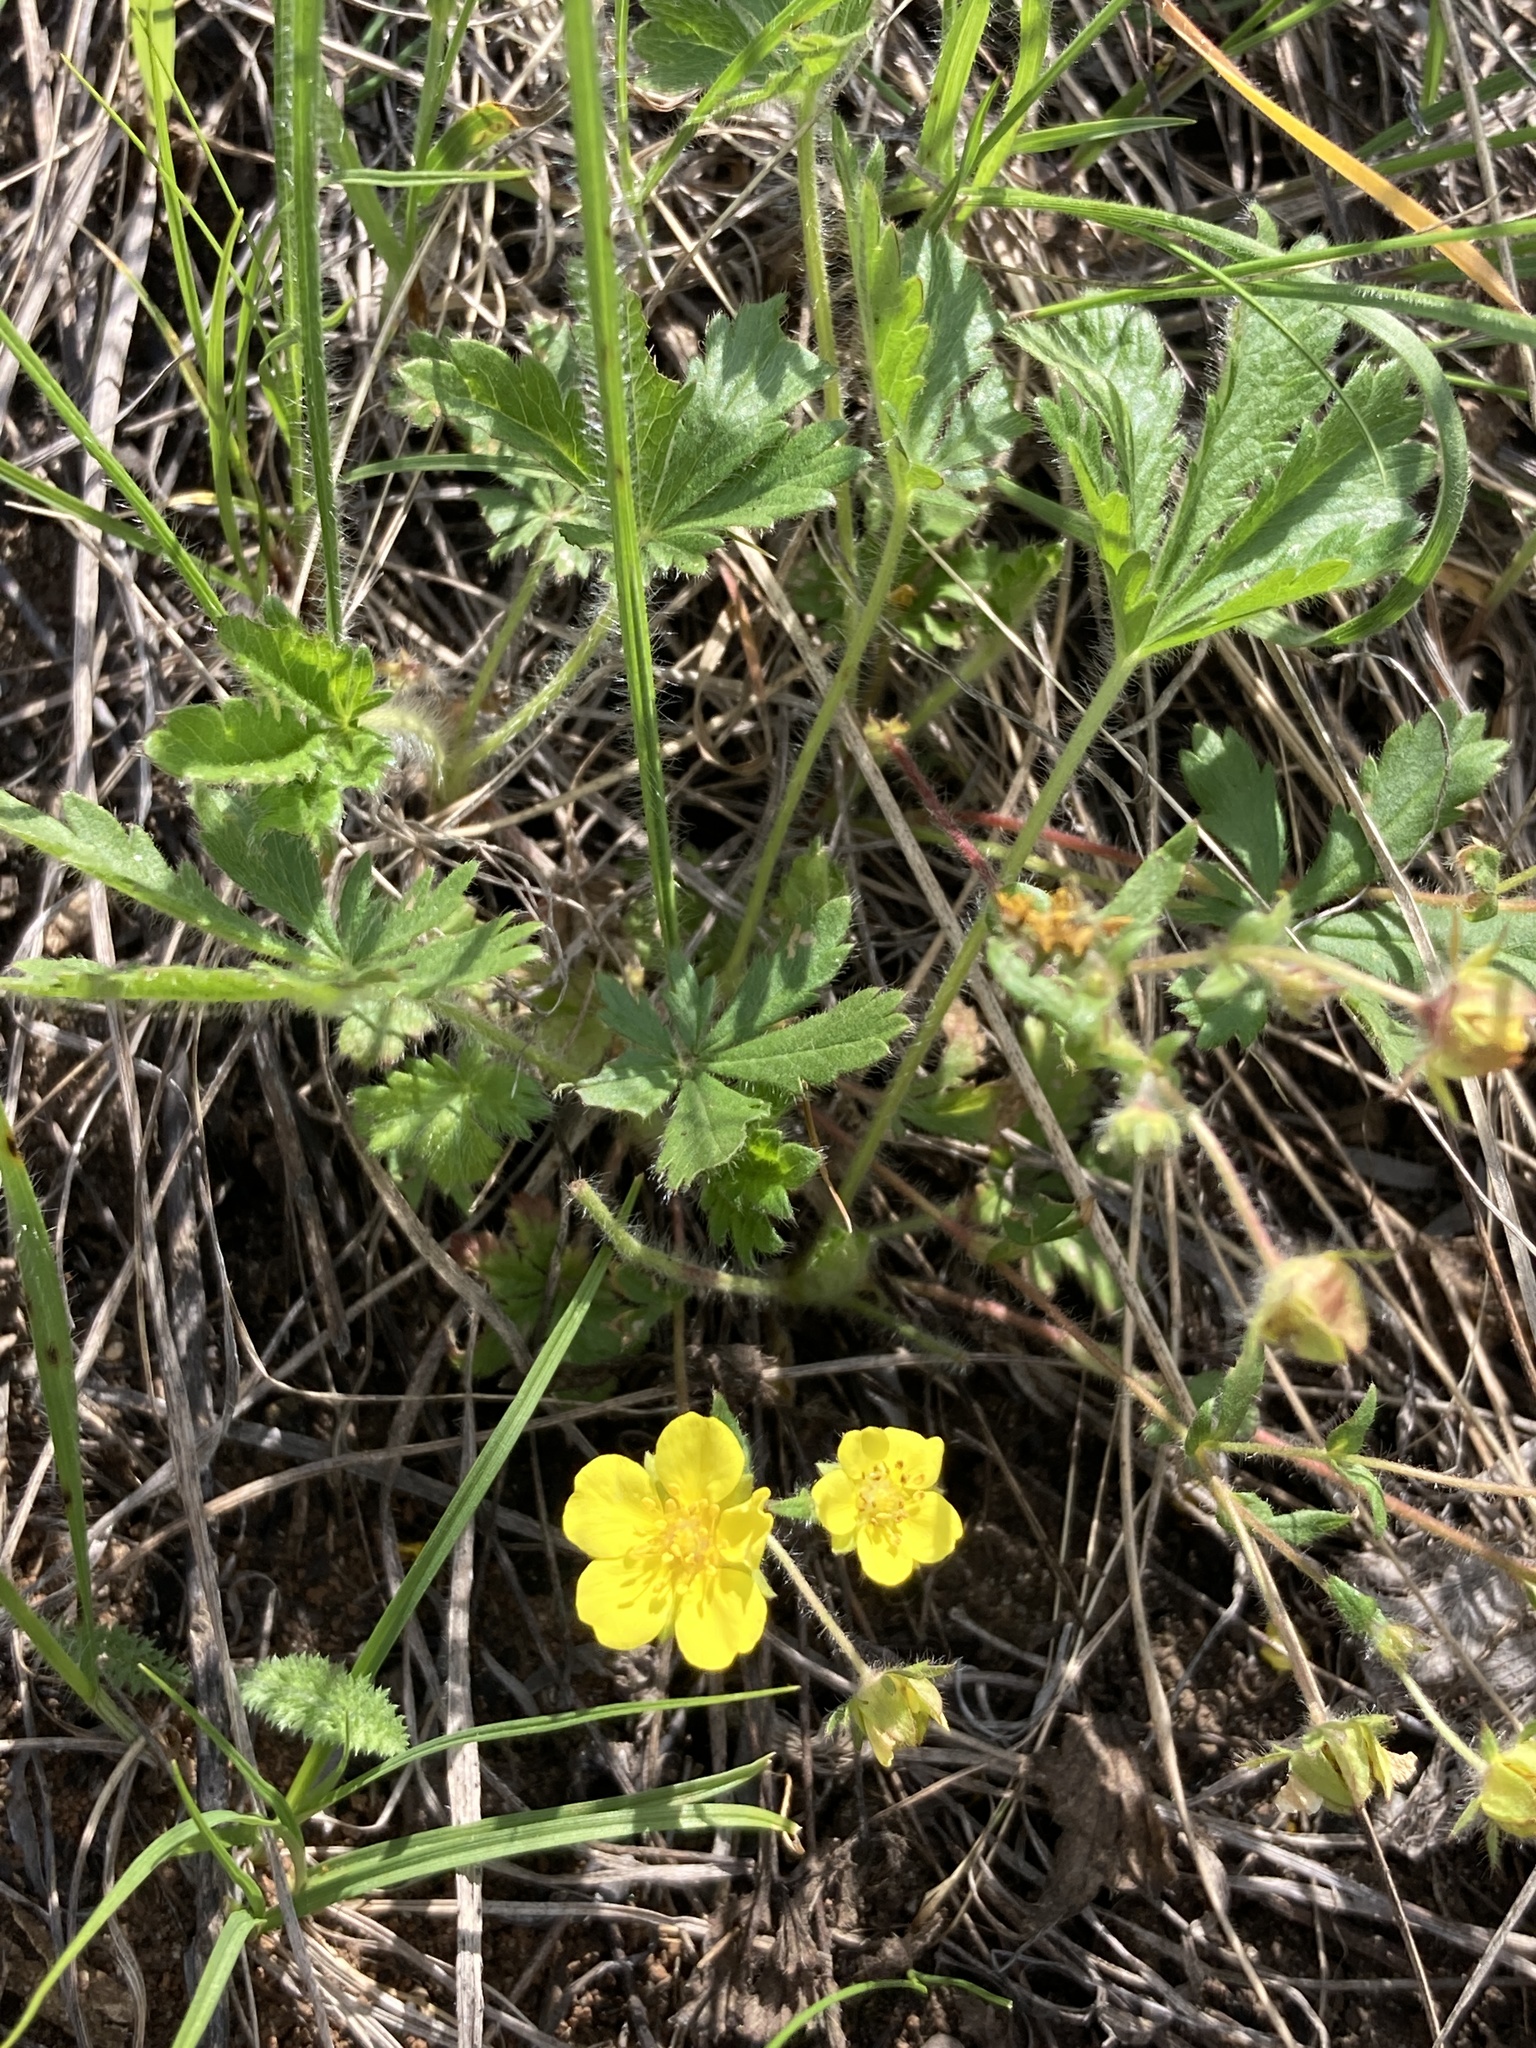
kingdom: Plantae
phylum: Tracheophyta
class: Magnoliopsida
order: Rosales
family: Rosaceae
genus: Potentilla
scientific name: Potentilla humifusa
